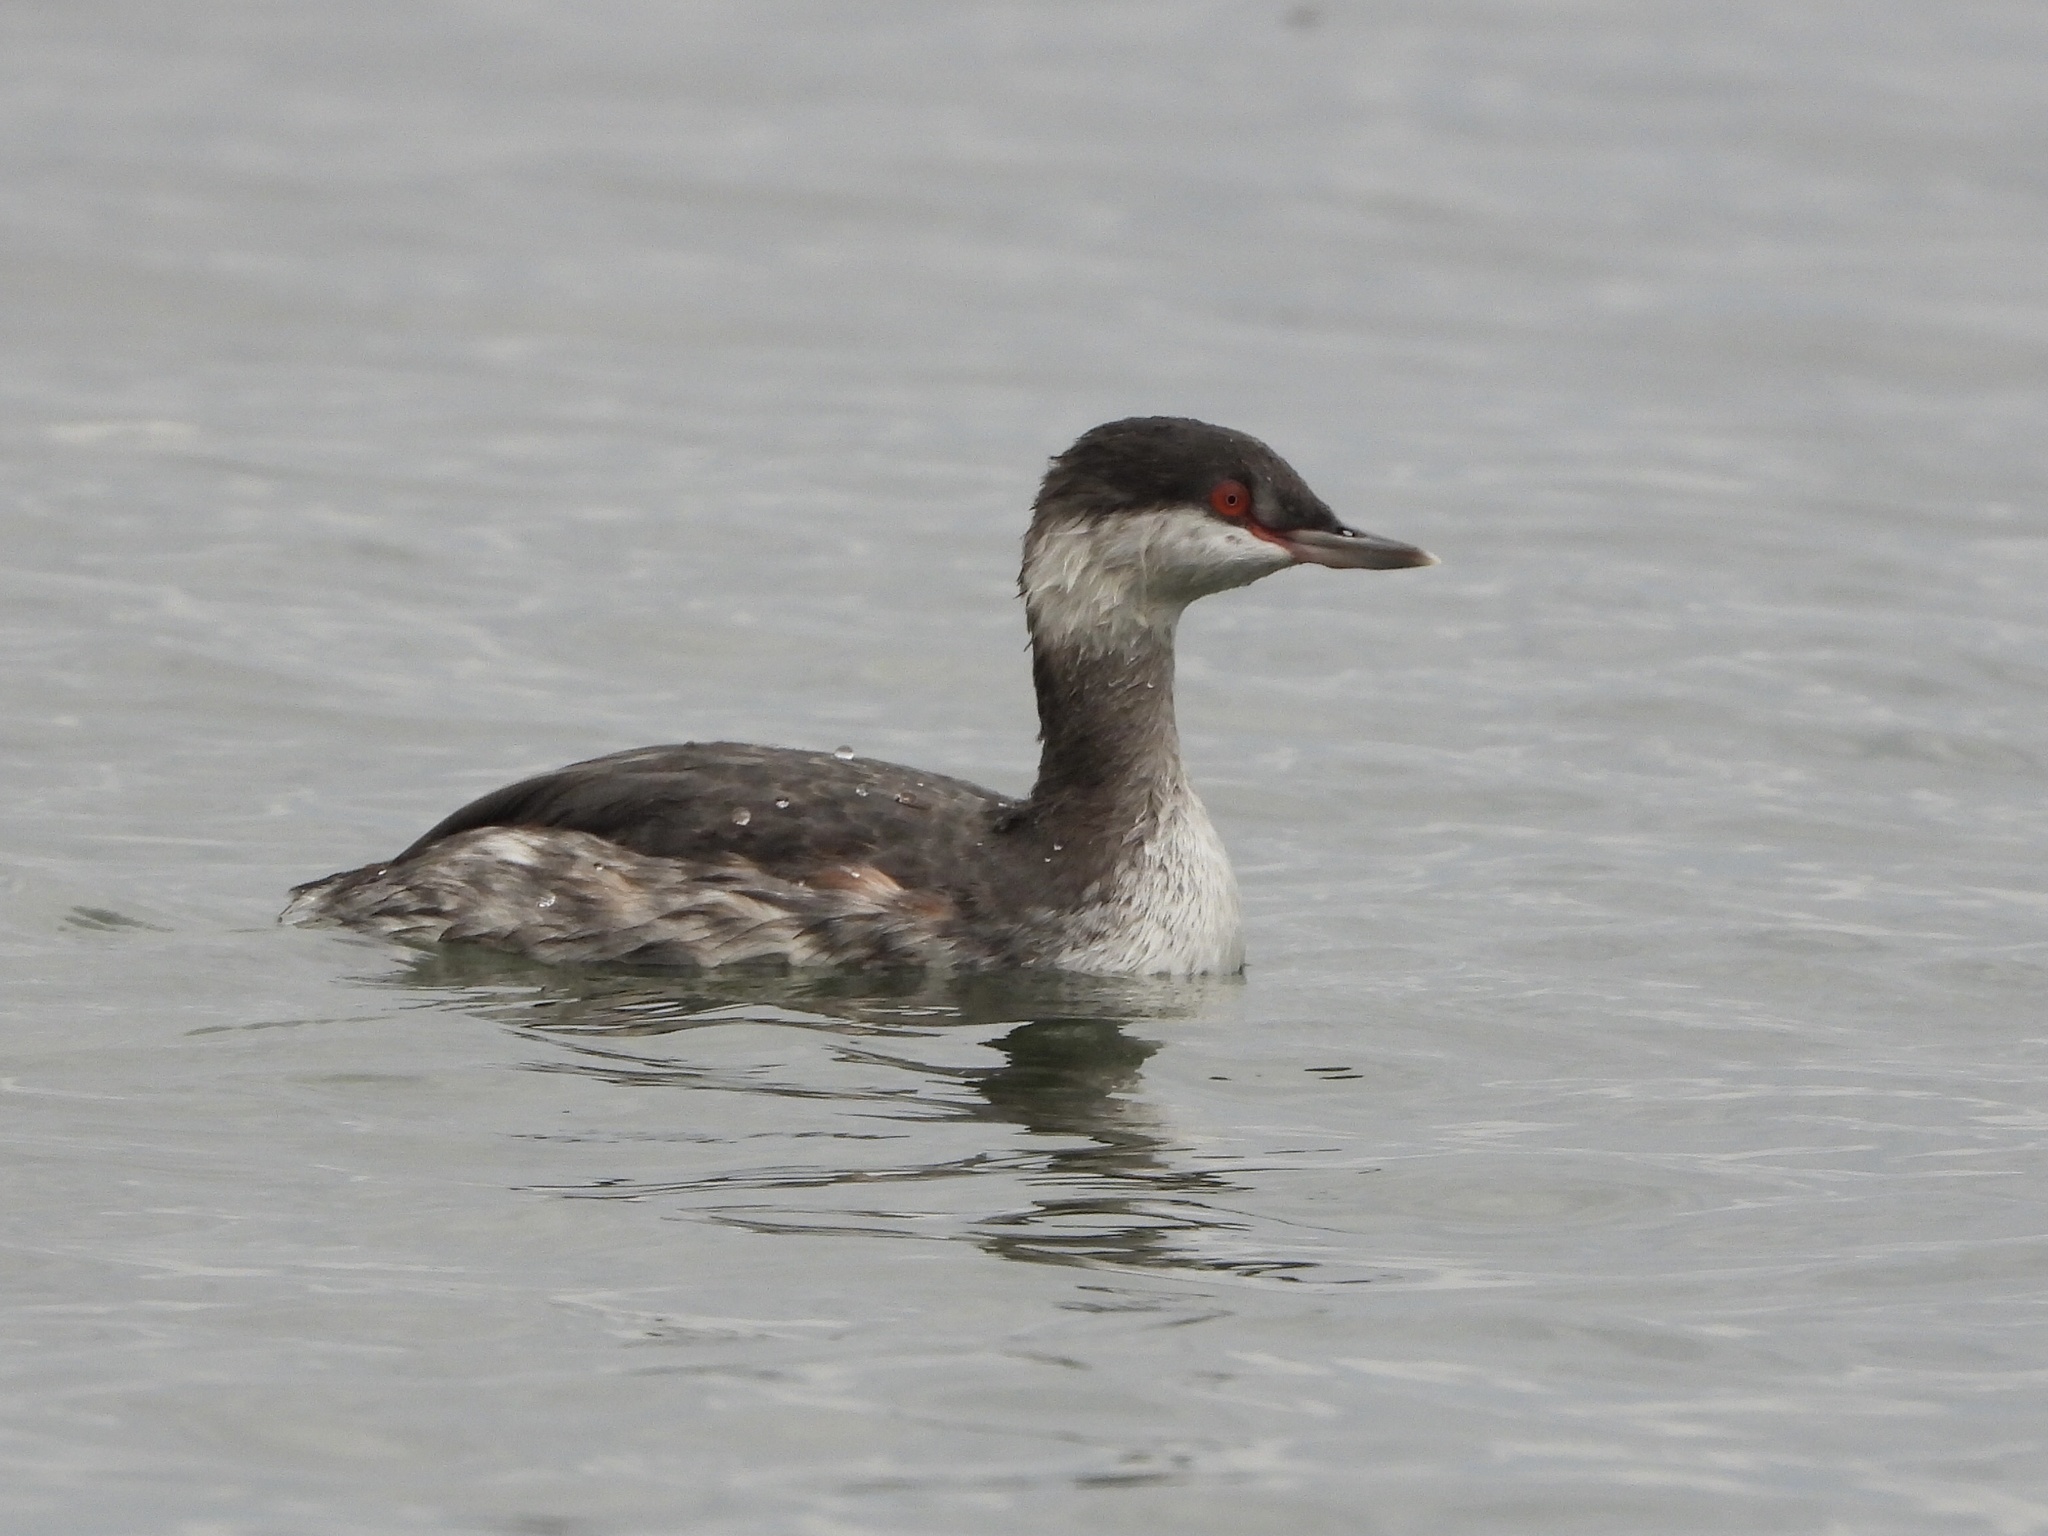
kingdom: Animalia
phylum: Chordata
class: Aves
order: Podicipediformes
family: Podicipedidae
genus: Podiceps
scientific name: Podiceps auritus
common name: Horned grebe
